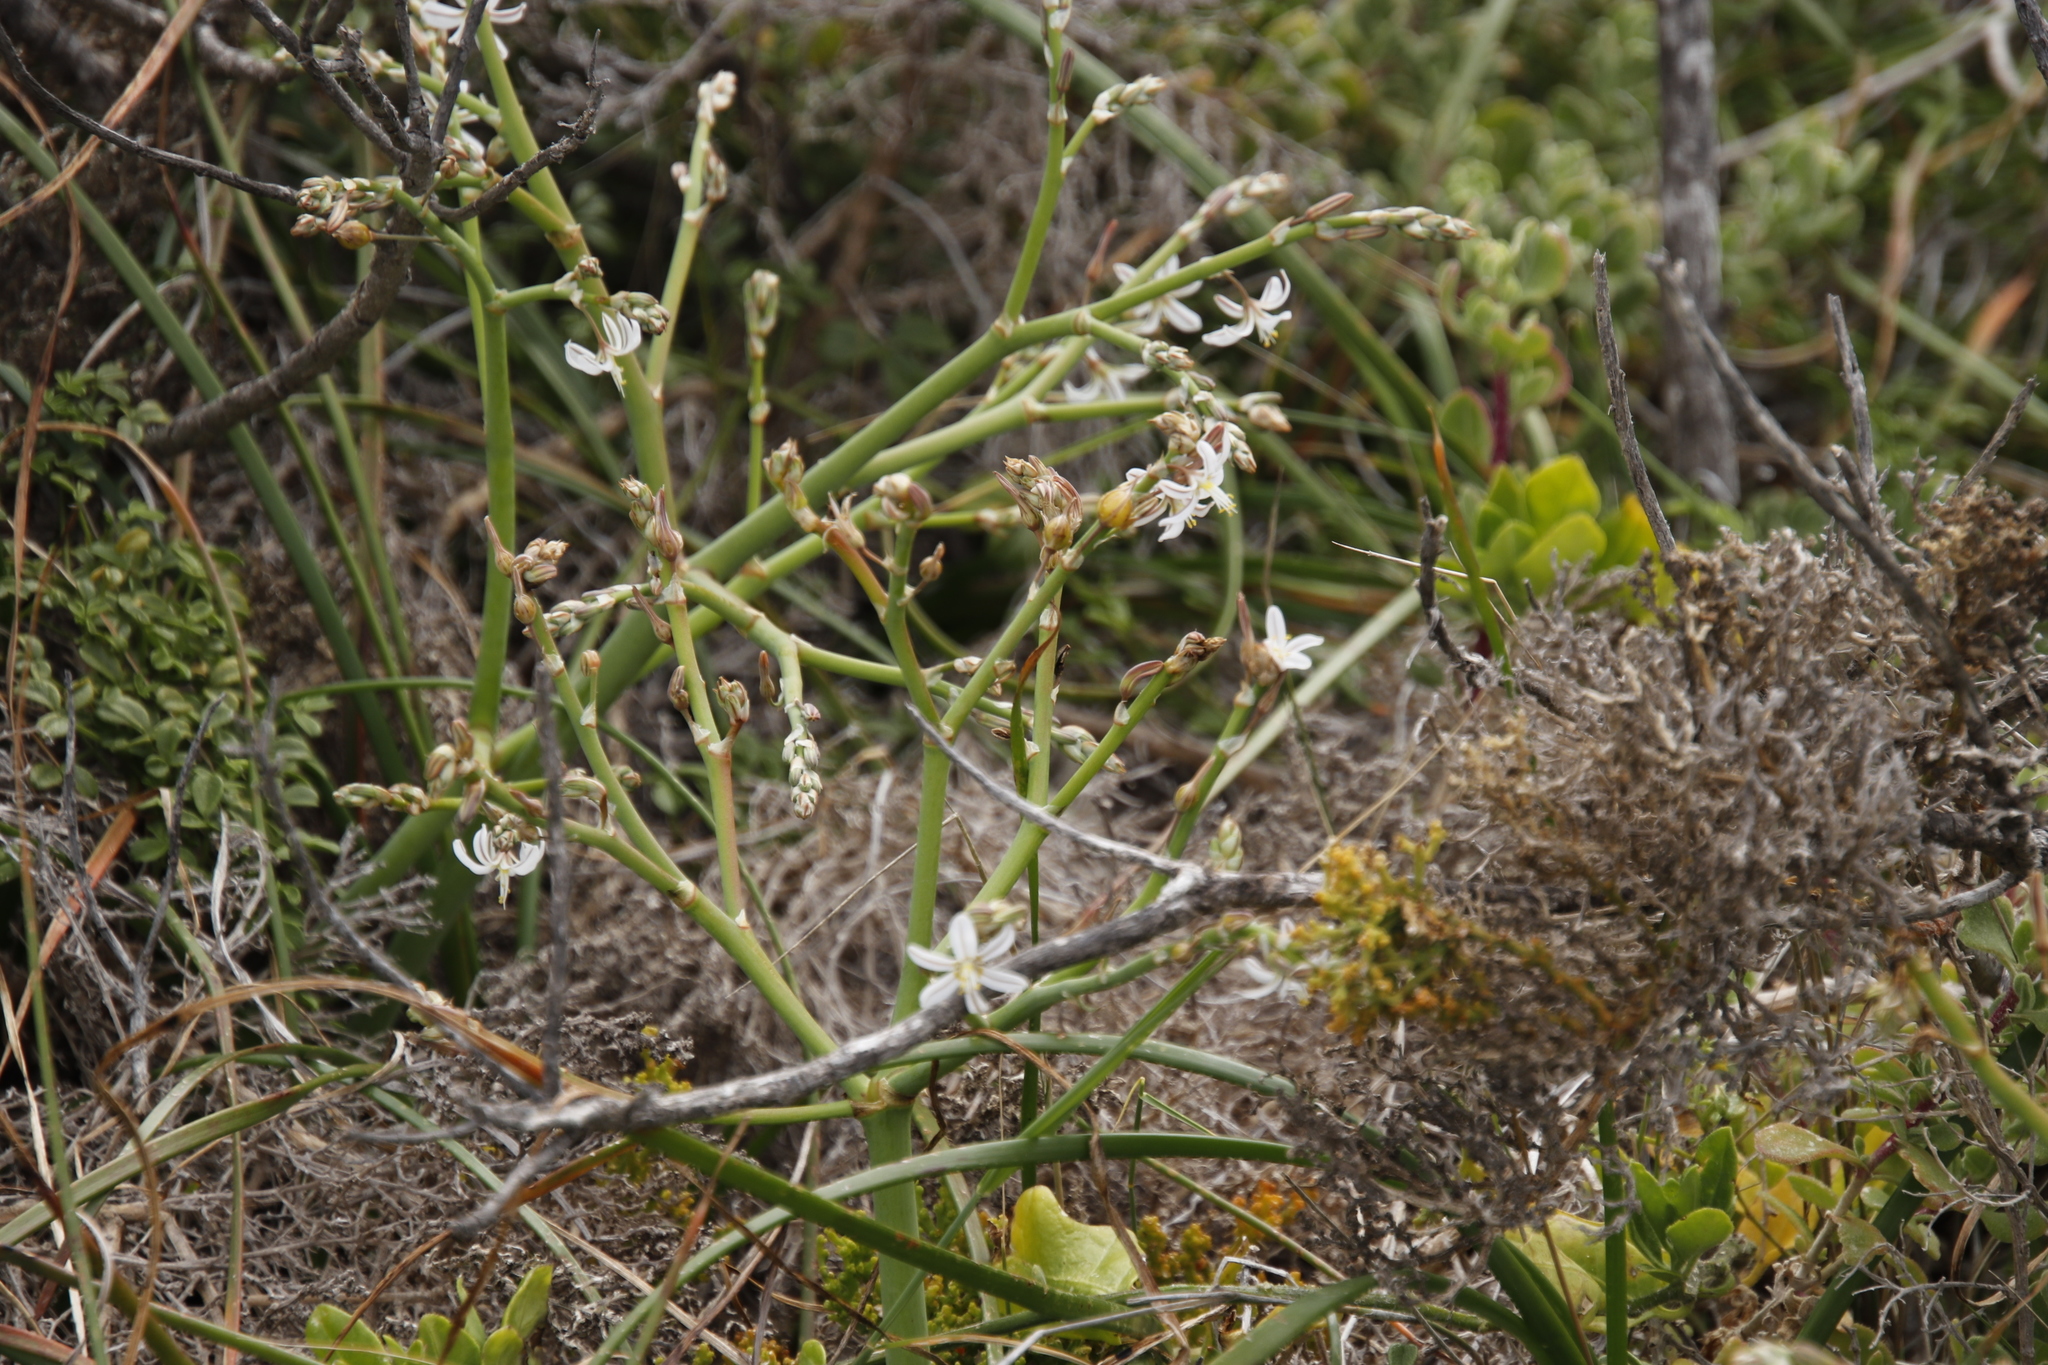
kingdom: Plantae
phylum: Tracheophyta
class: Liliopsida
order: Asparagales
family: Asphodelaceae
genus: Trachyandra
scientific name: Trachyandra divaricata
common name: Dune onionweed
